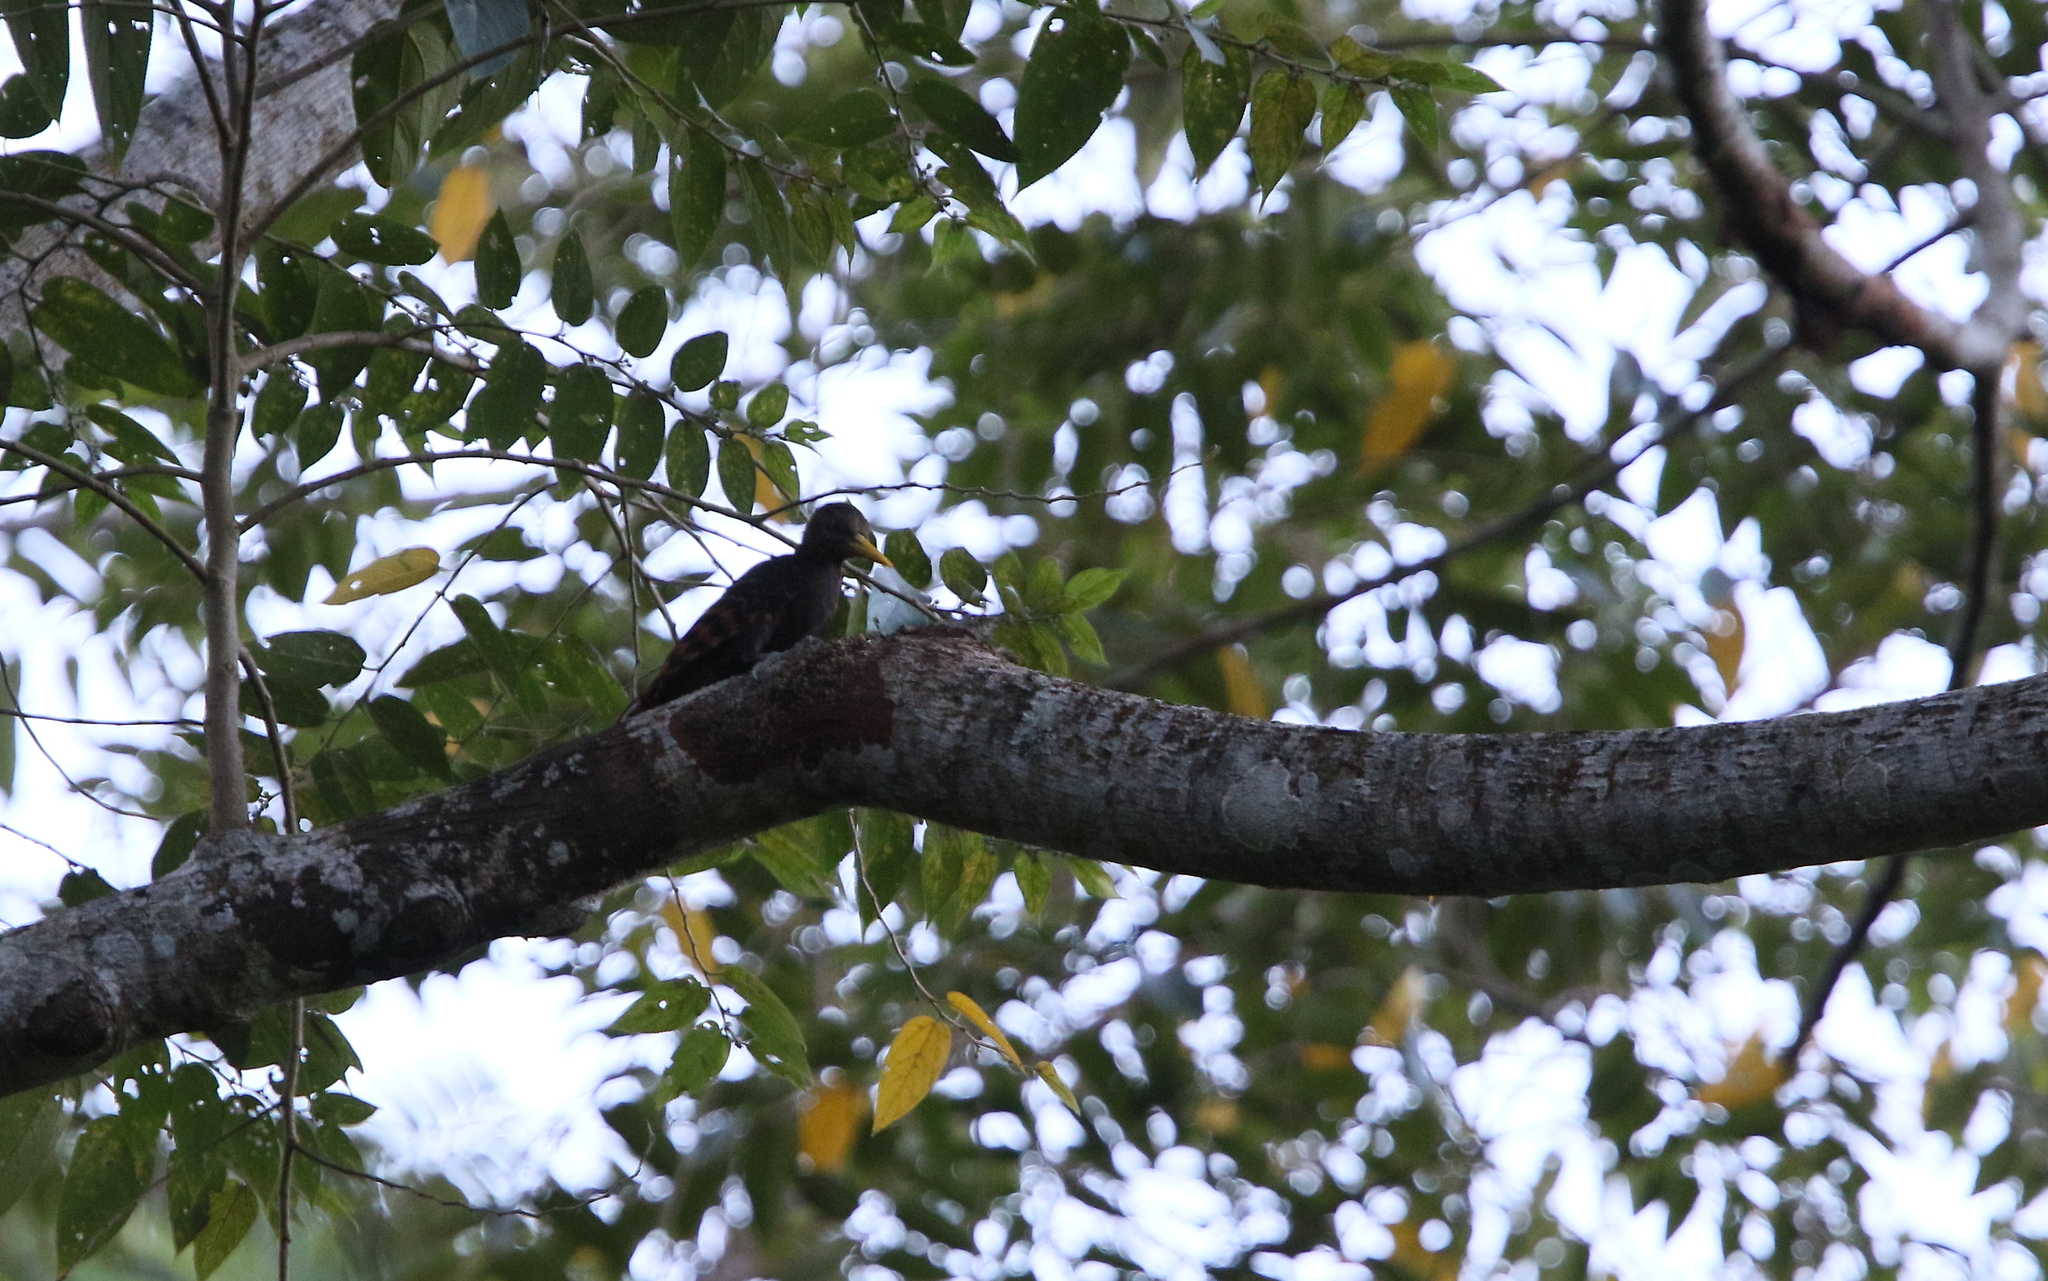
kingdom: Animalia
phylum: Chordata
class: Aves
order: Piciformes
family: Picidae
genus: Blythipicus
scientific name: Blythipicus pyrrhotis
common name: Bay woodpecker
